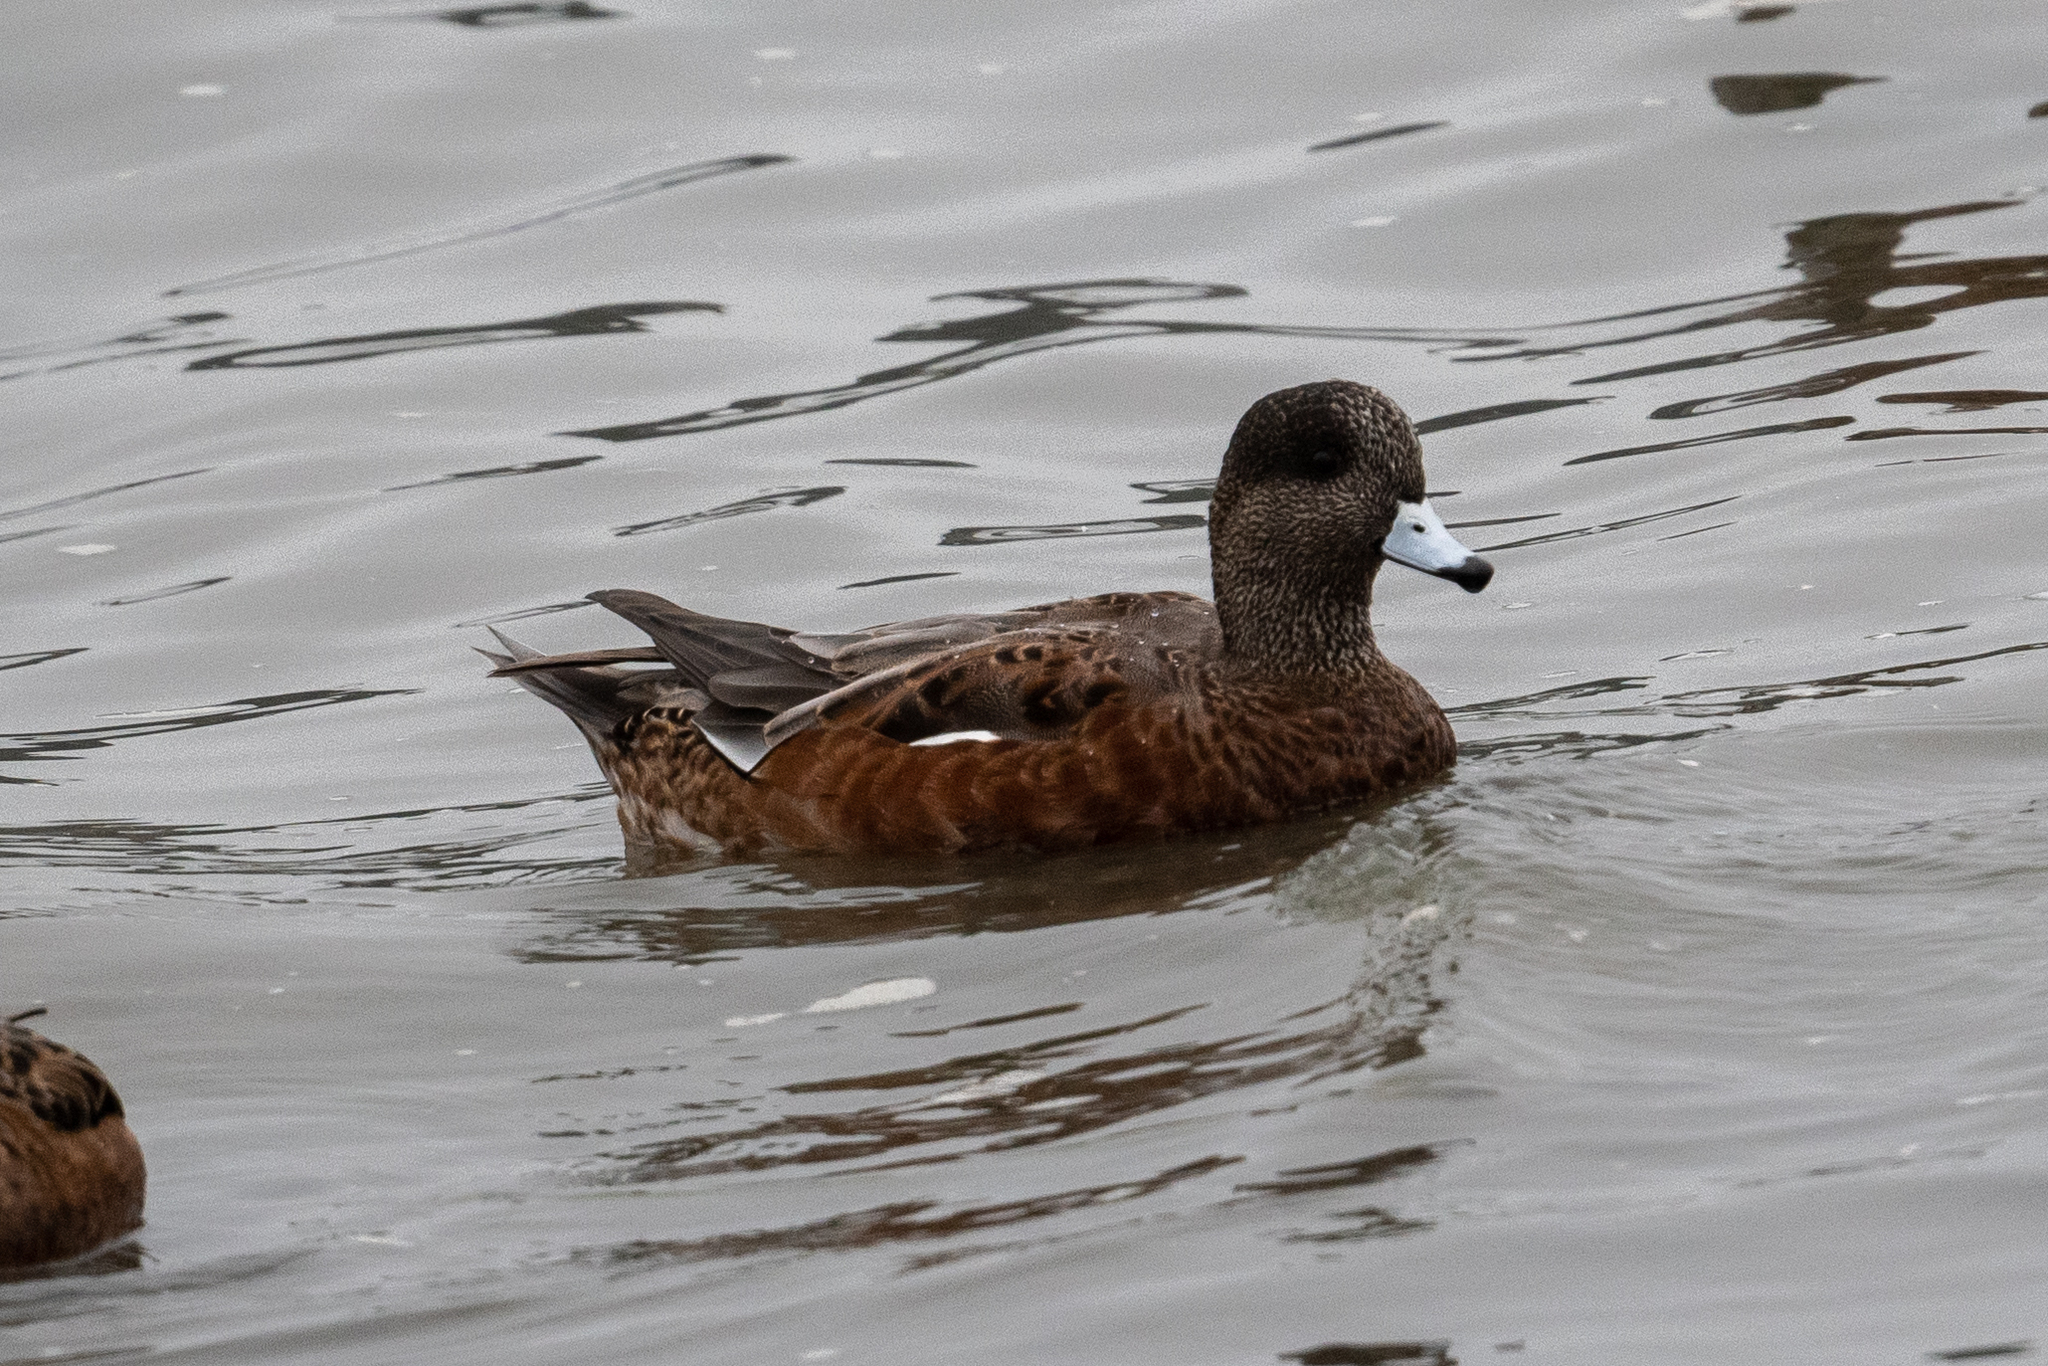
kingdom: Animalia
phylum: Chordata
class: Aves
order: Anseriformes
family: Anatidae
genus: Mareca
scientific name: Mareca americana
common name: American wigeon
